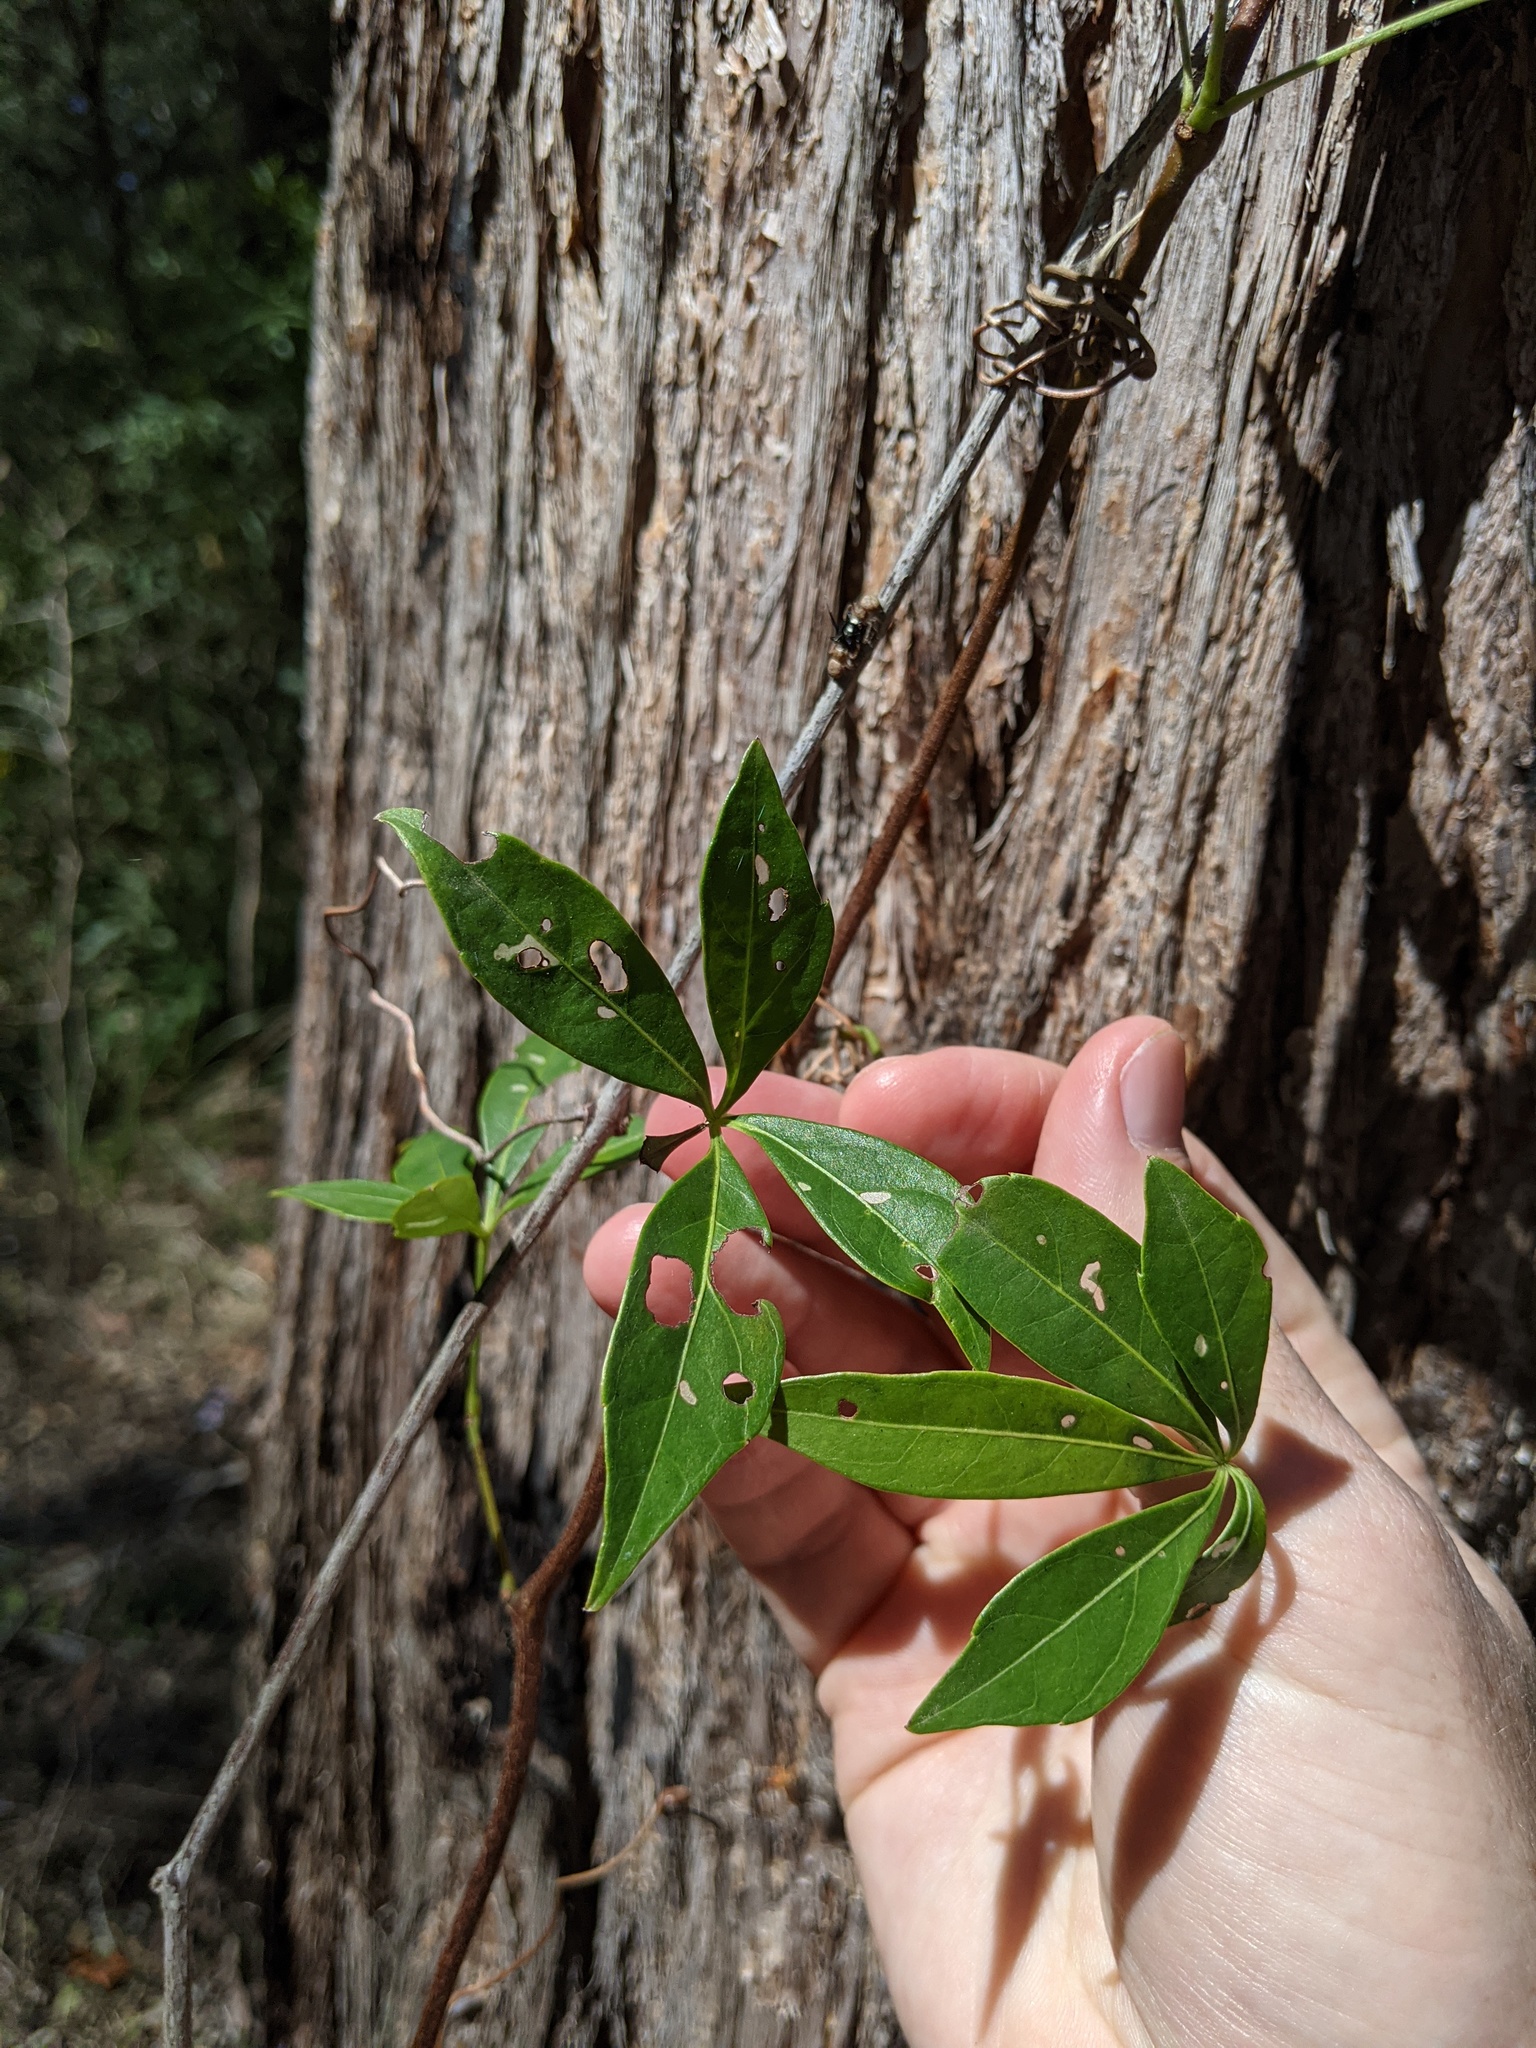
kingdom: Plantae
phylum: Tracheophyta
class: Magnoliopsida
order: Vitales
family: Vitaceae
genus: Clematicissus
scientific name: Clematicissus opaca
